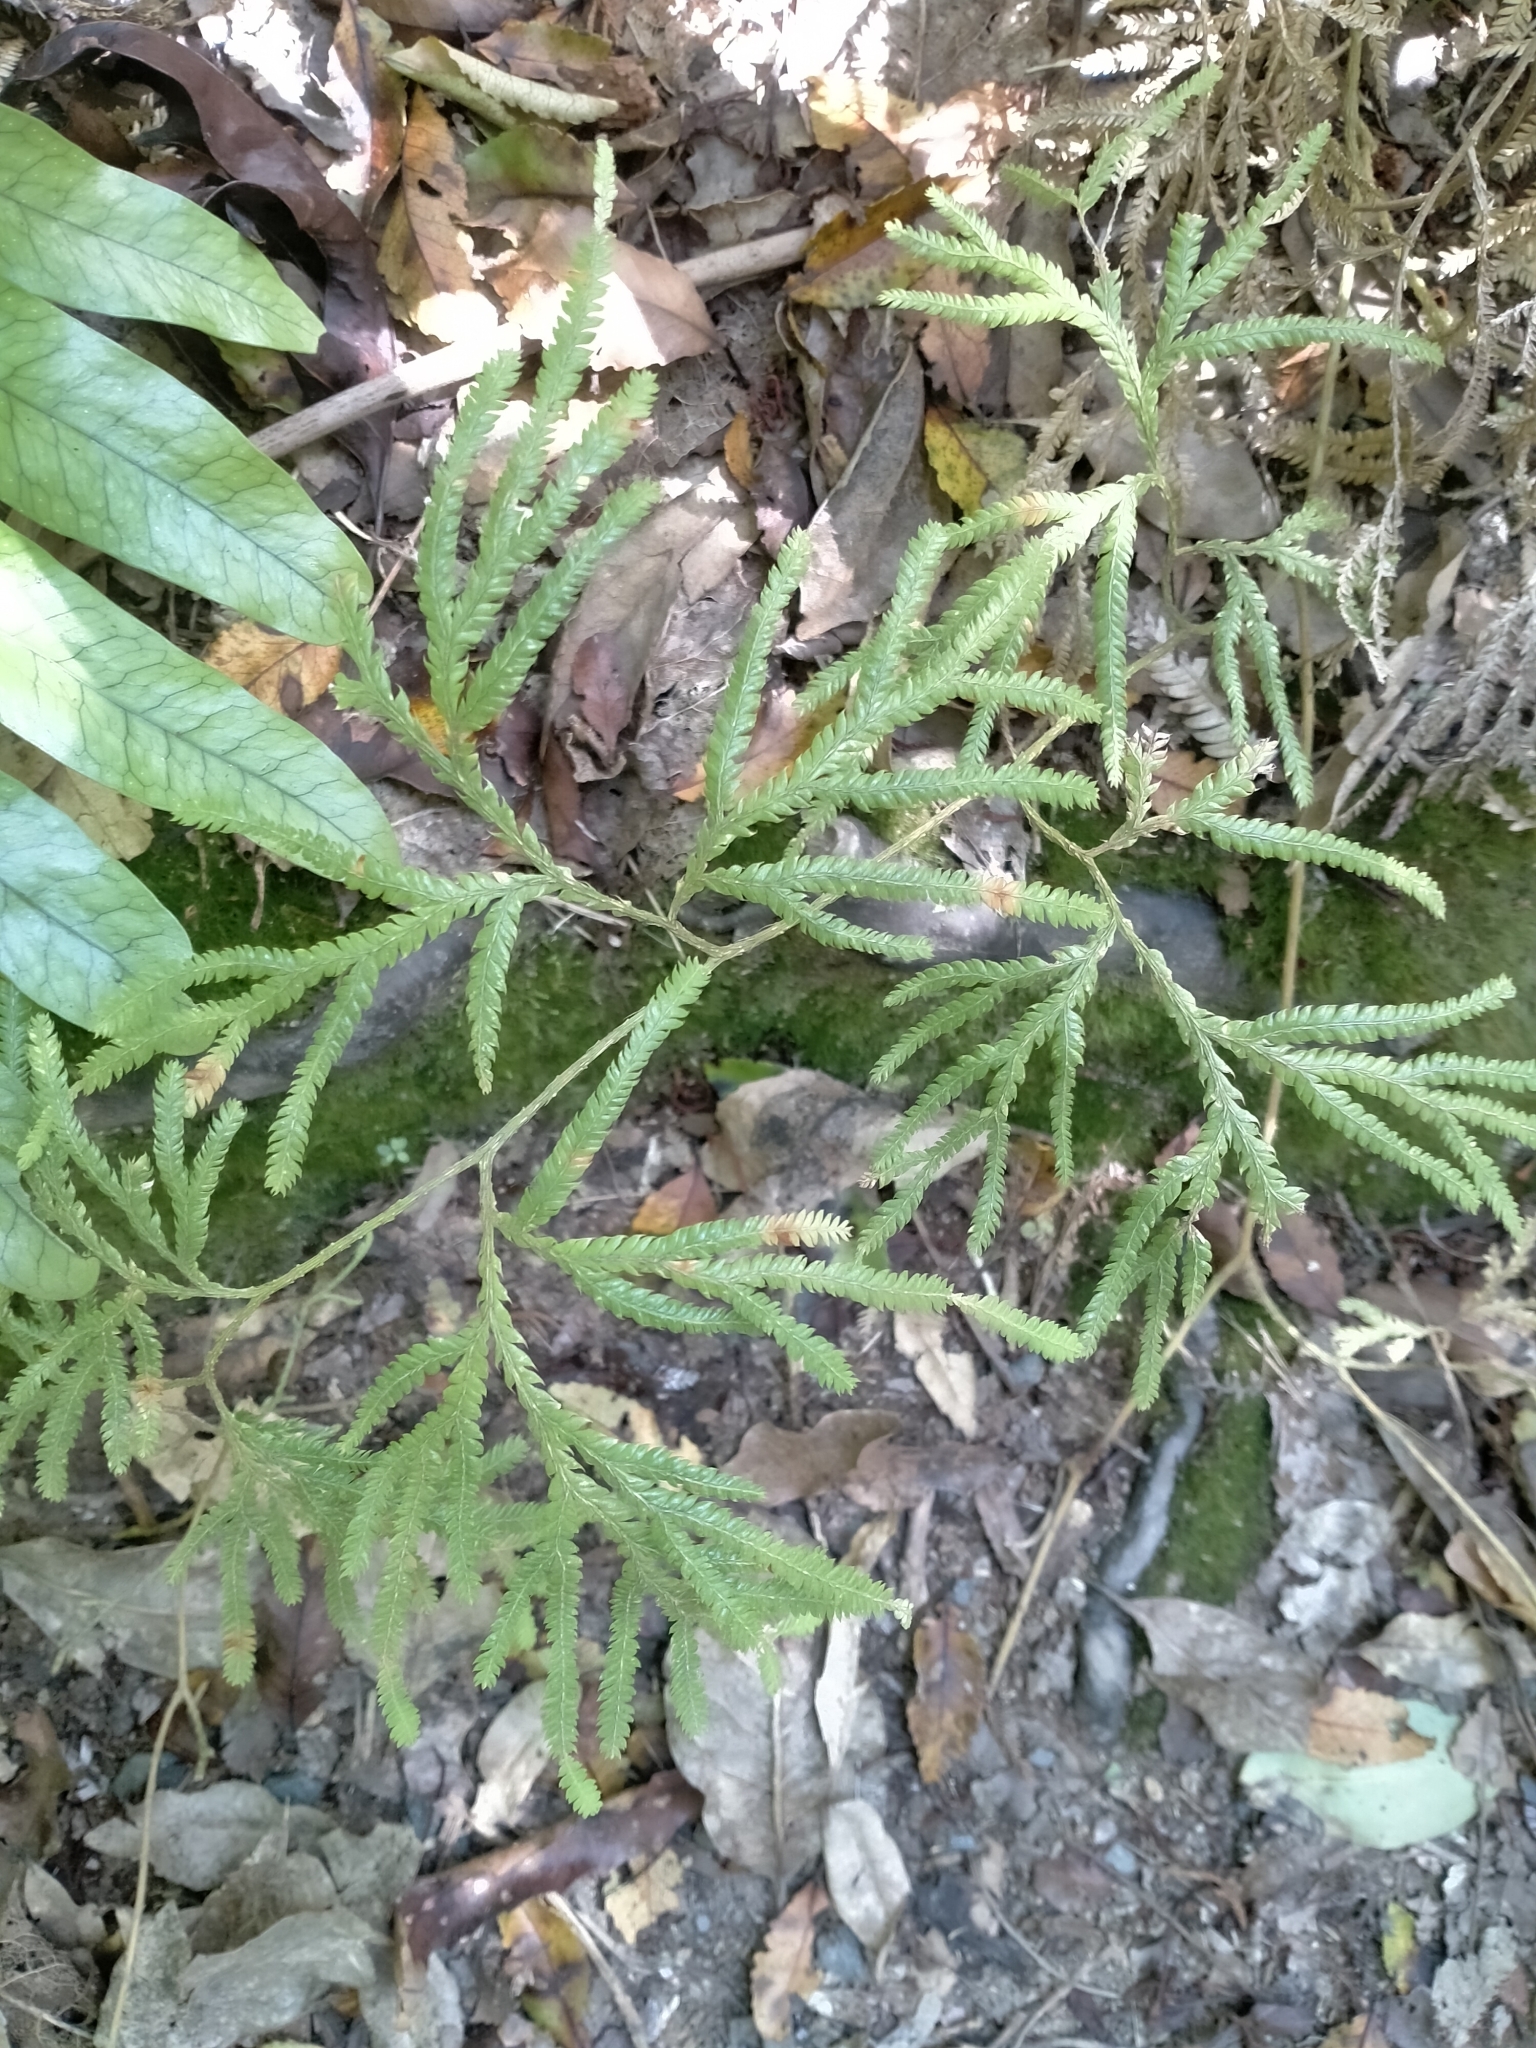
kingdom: Plantae
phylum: Tracheophyta
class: Lycopodiopsida
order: Lycopodiales
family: Lycopodiaceae
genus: Lycopodium
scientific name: Lycopodium volubile
